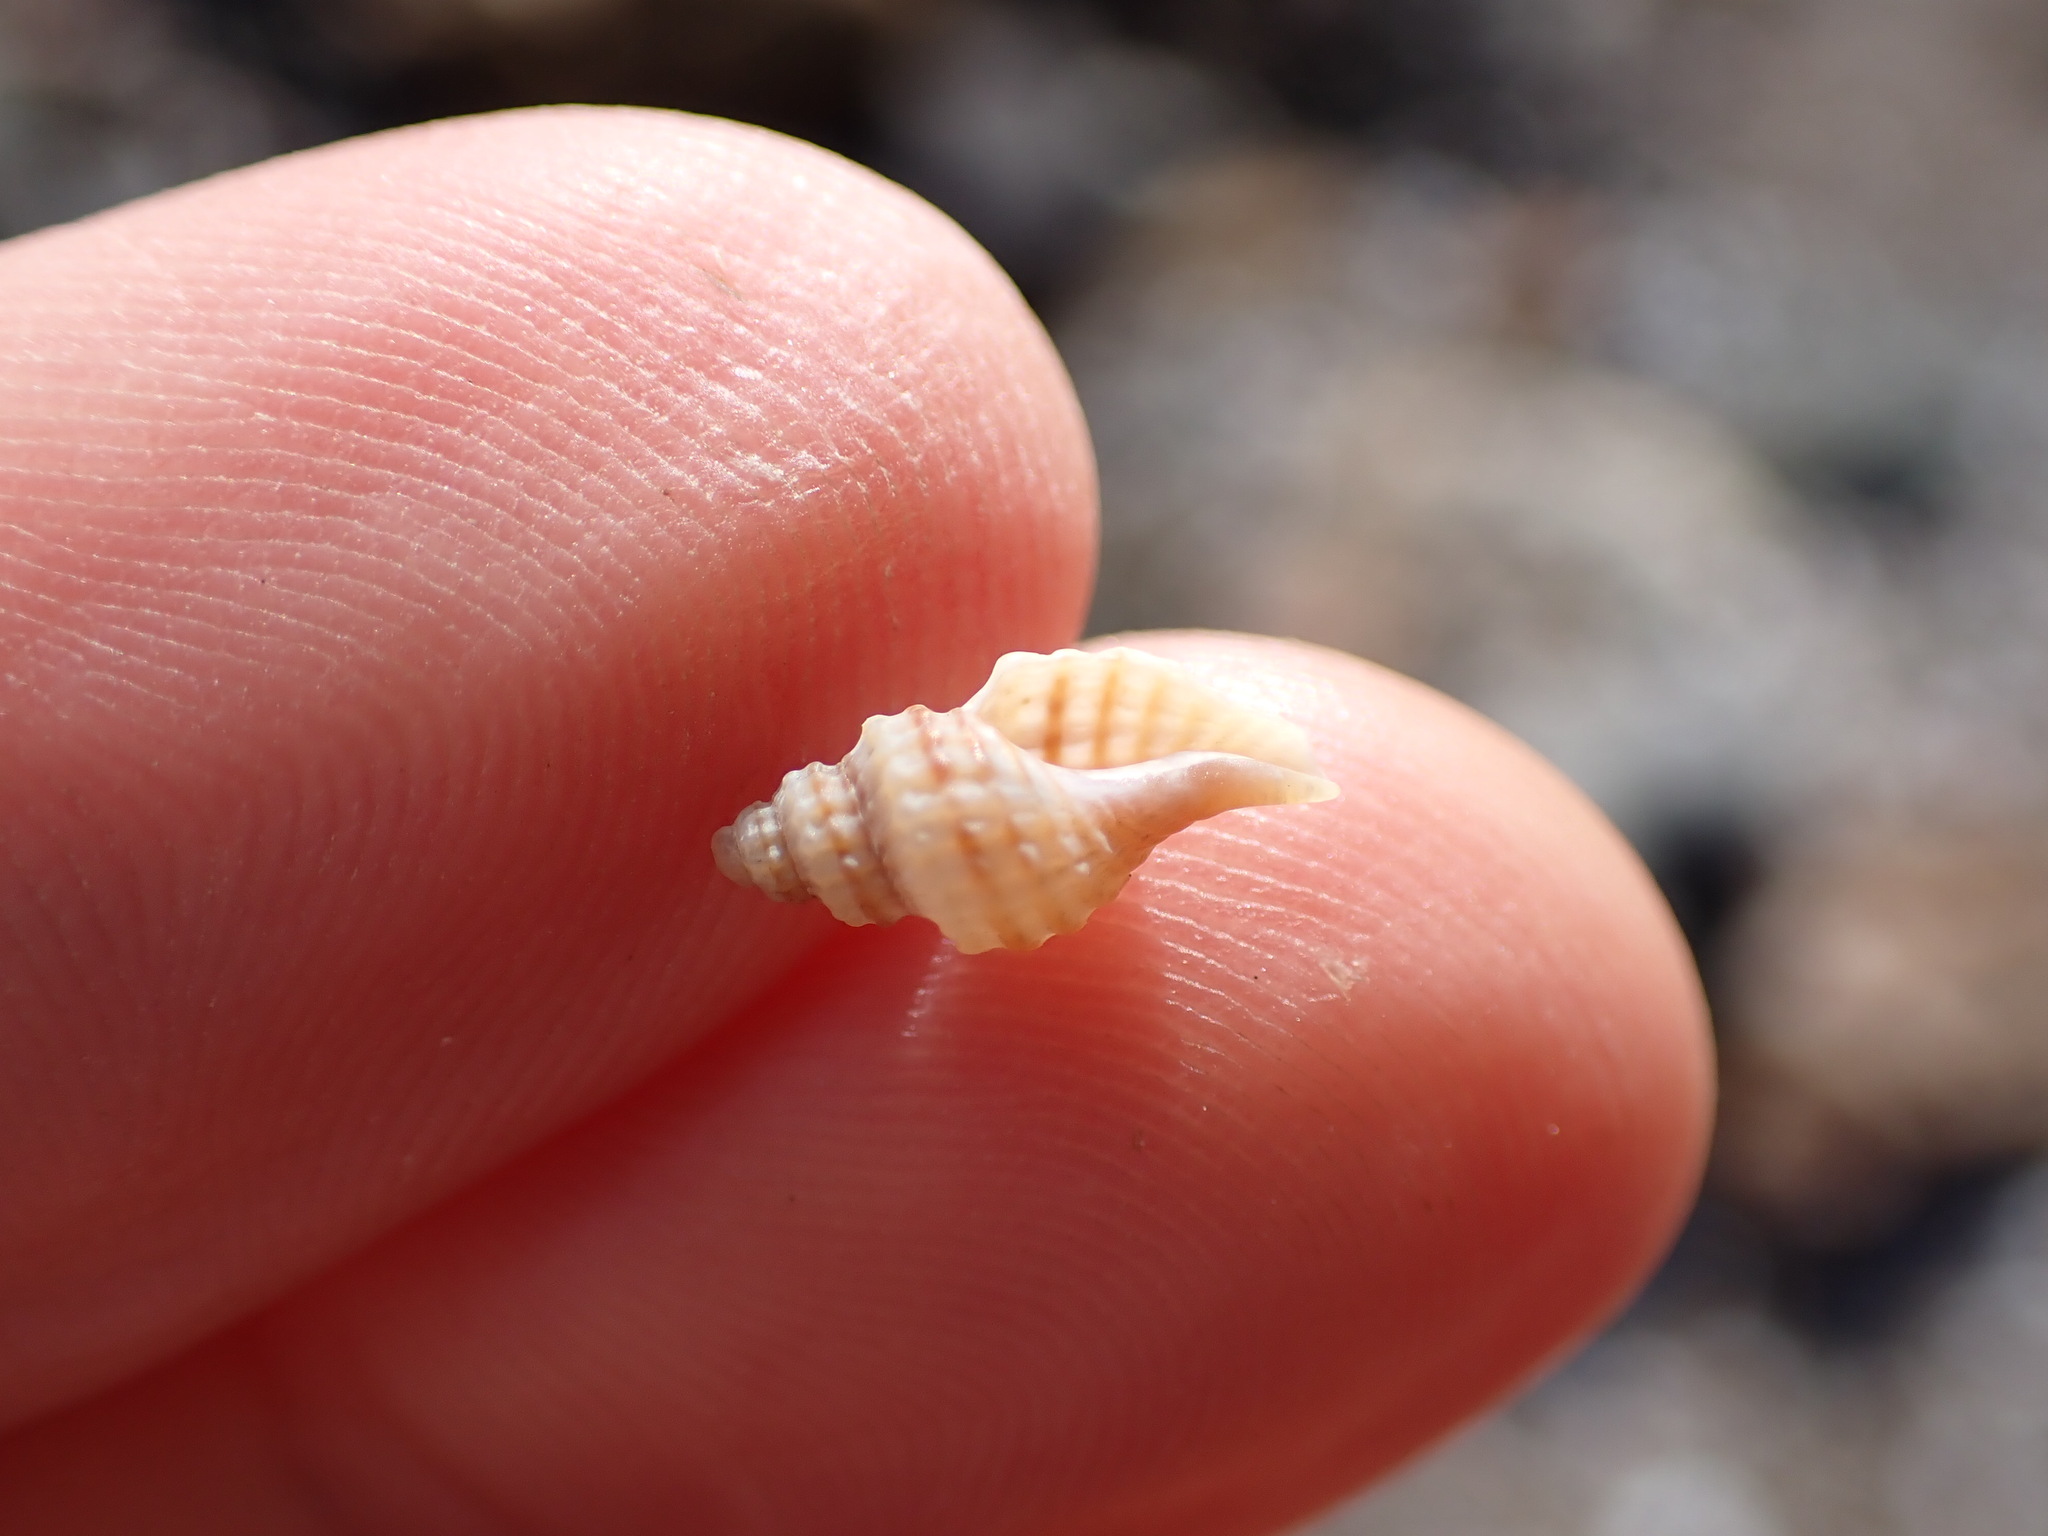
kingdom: Animalia
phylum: Mollusca
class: Gastropoda
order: Neogastropoda
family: Muricidae
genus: Xymene
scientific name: Xymene plebeius
